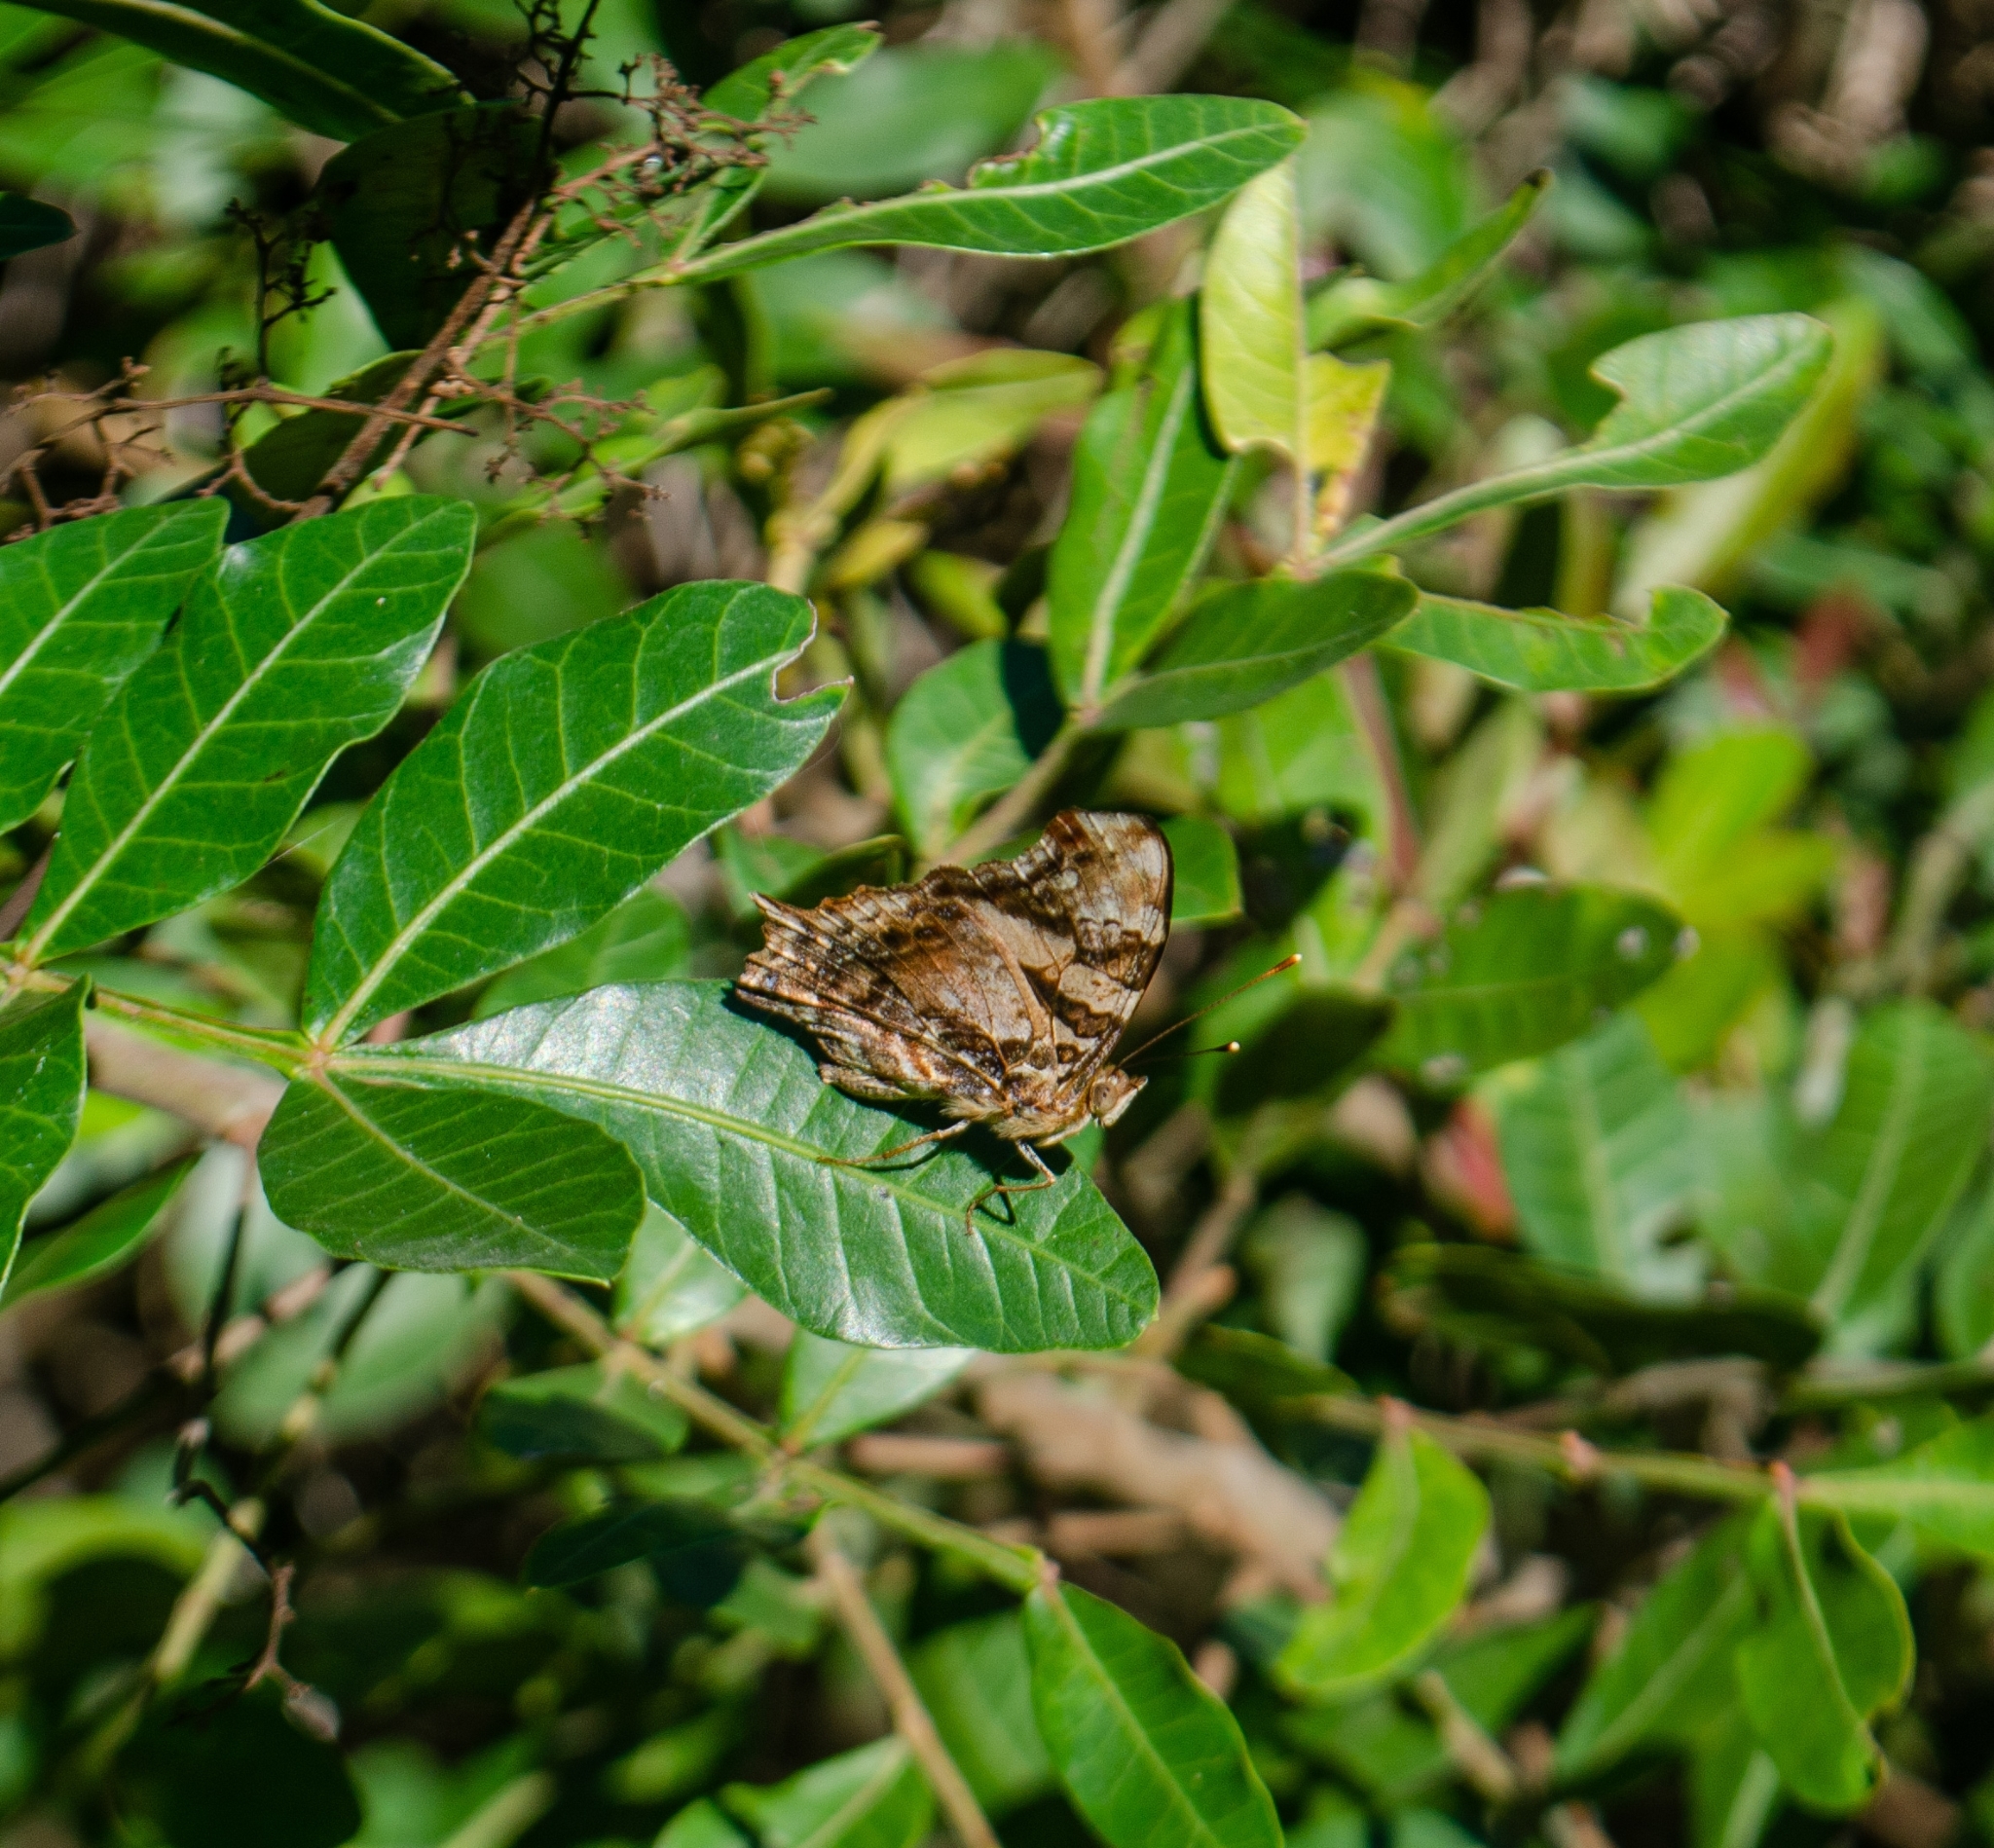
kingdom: Animalia
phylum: Arthropoda
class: Insecta
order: Lepidoptera
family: Nymphalidae
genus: Hypanartia
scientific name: Hypanartia bella
